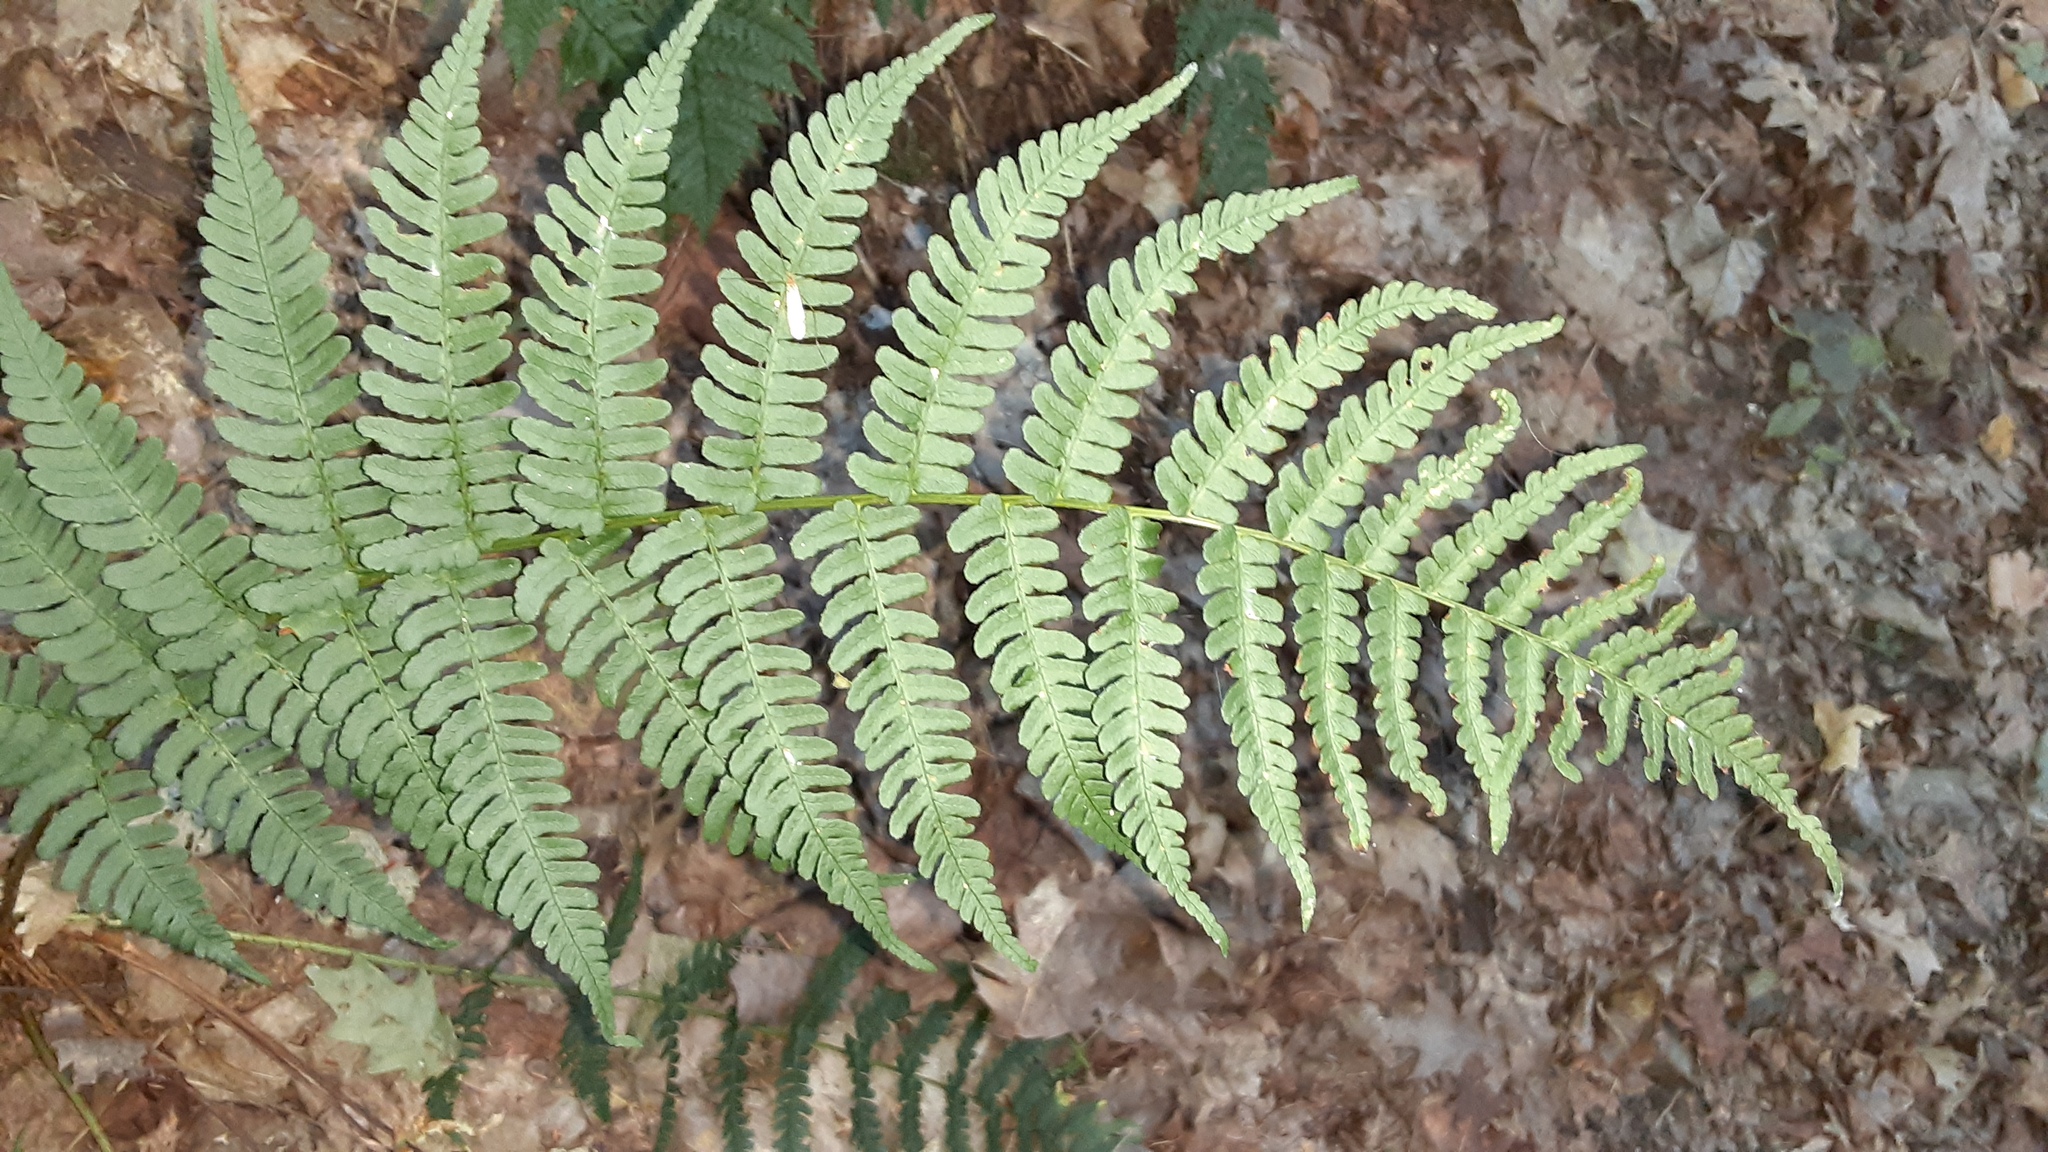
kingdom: Plantae
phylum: Tracheophyta
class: Polypodiopsida
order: Polypodiales
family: Dryopteridaceae
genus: Dryopteris
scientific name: Dryopteris marginalis
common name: Marginal wood fern
